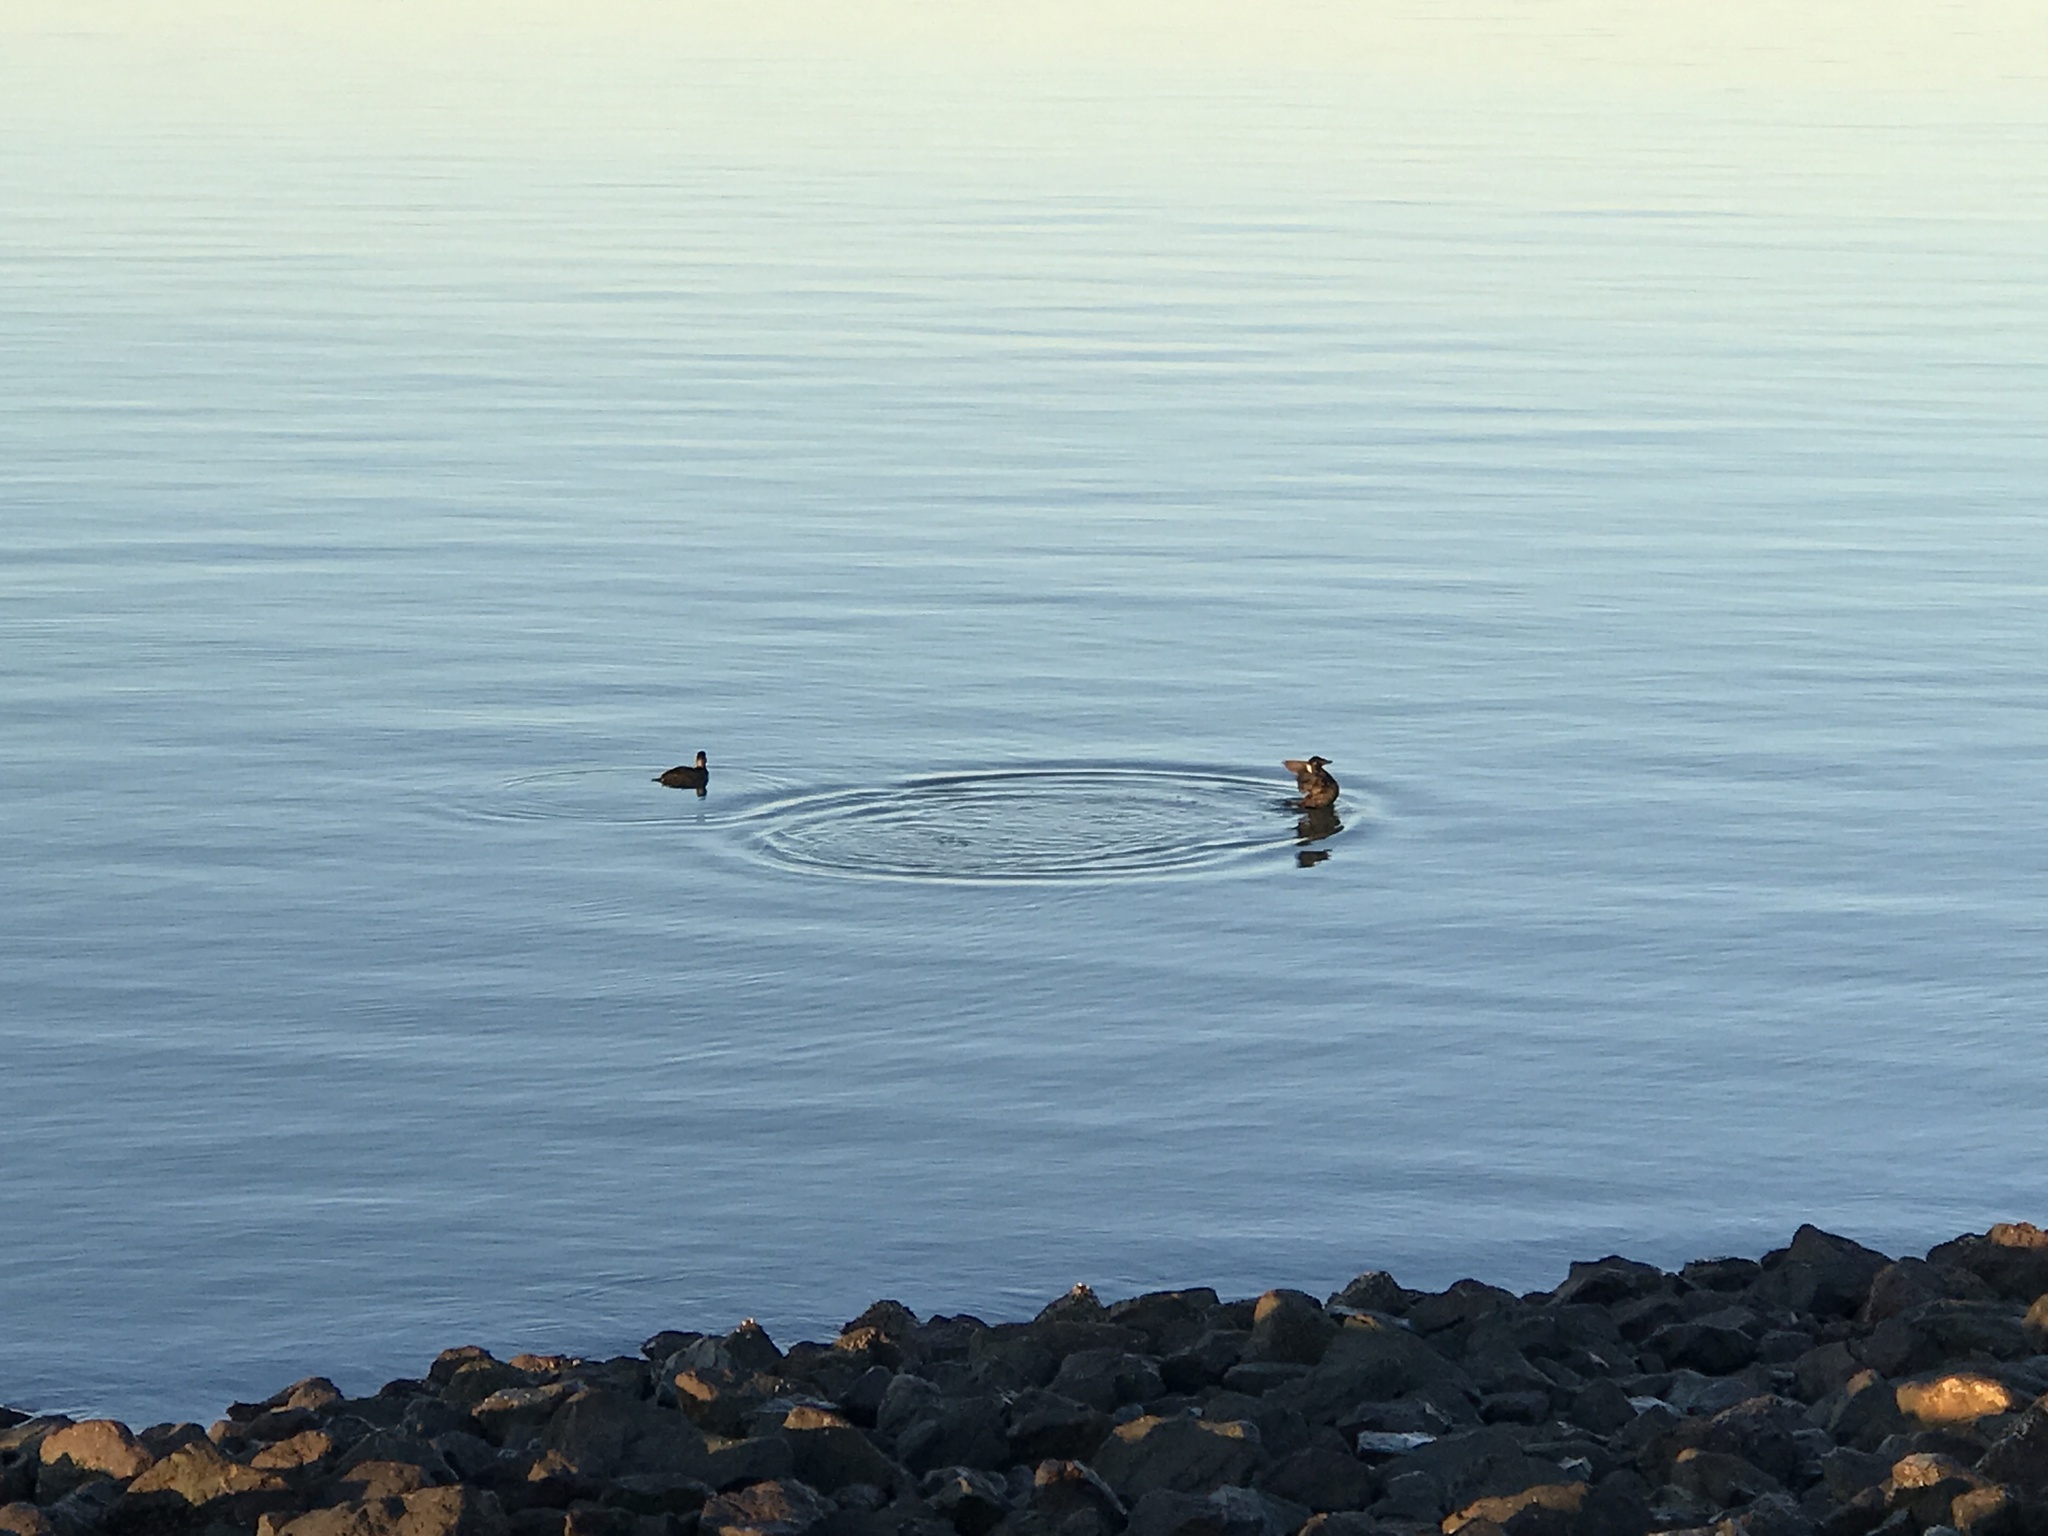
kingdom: Animalia
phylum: Chordata
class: Aves
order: Anseriformes
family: Anatidae
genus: Melanitta
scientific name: Melanitta perspicillata
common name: Surf scoter
